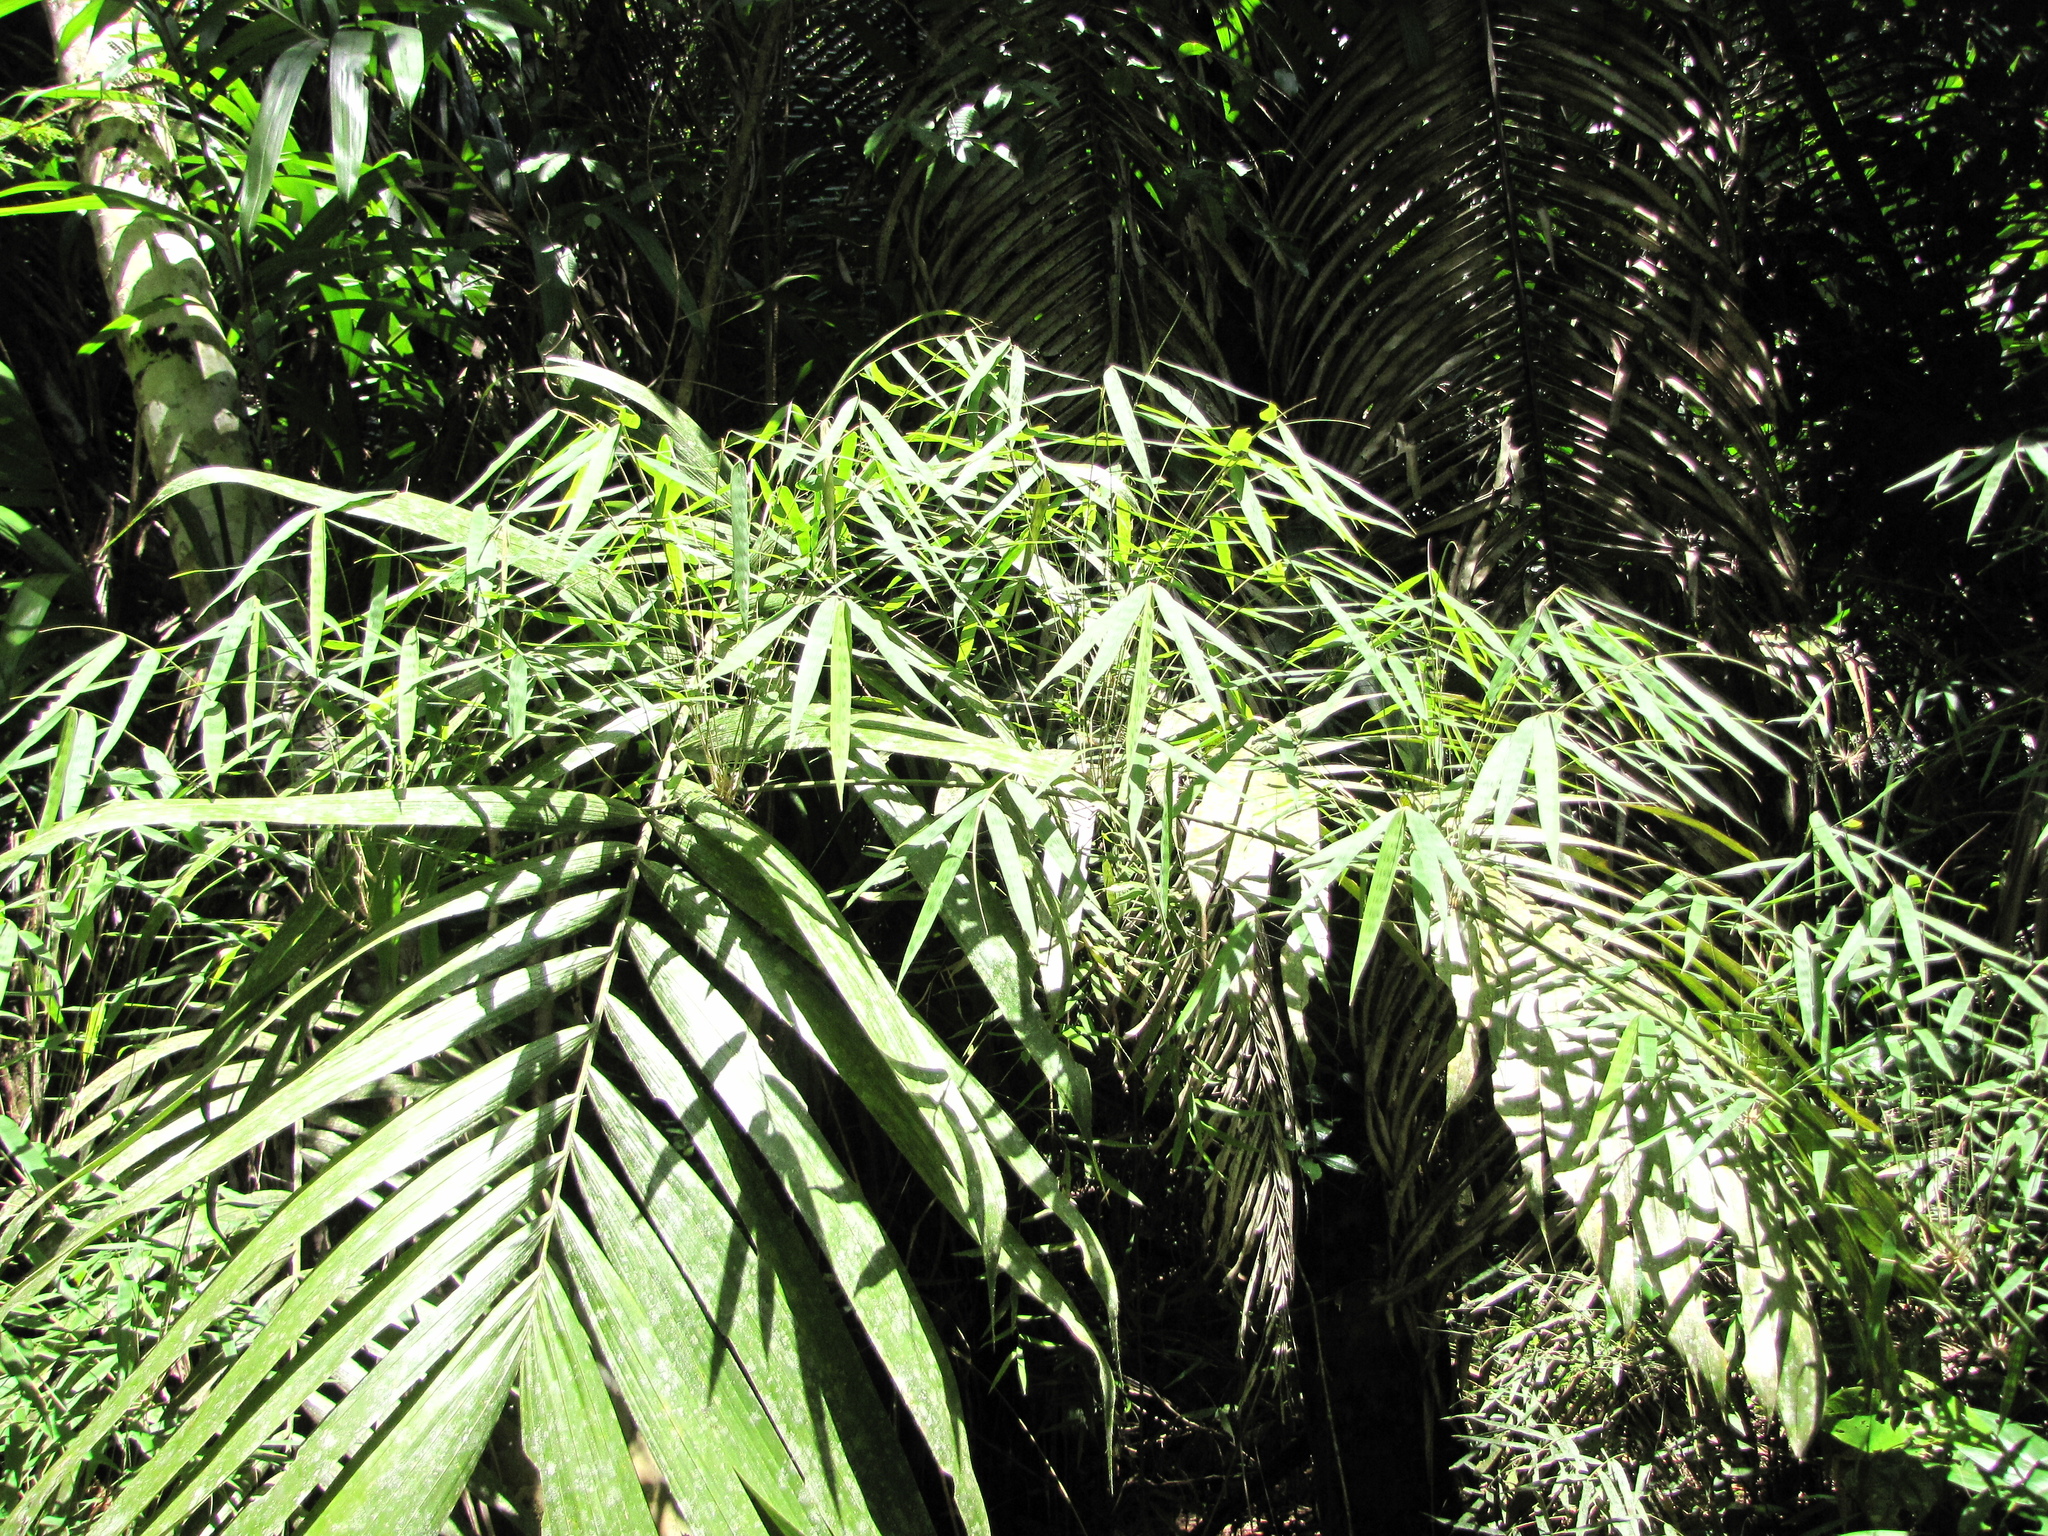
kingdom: Plantae
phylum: Tracheophyta
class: Liliopsida
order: Poales
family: Poaceae
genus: Rhipidocladum
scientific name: Rhipidocladum bartlettii
